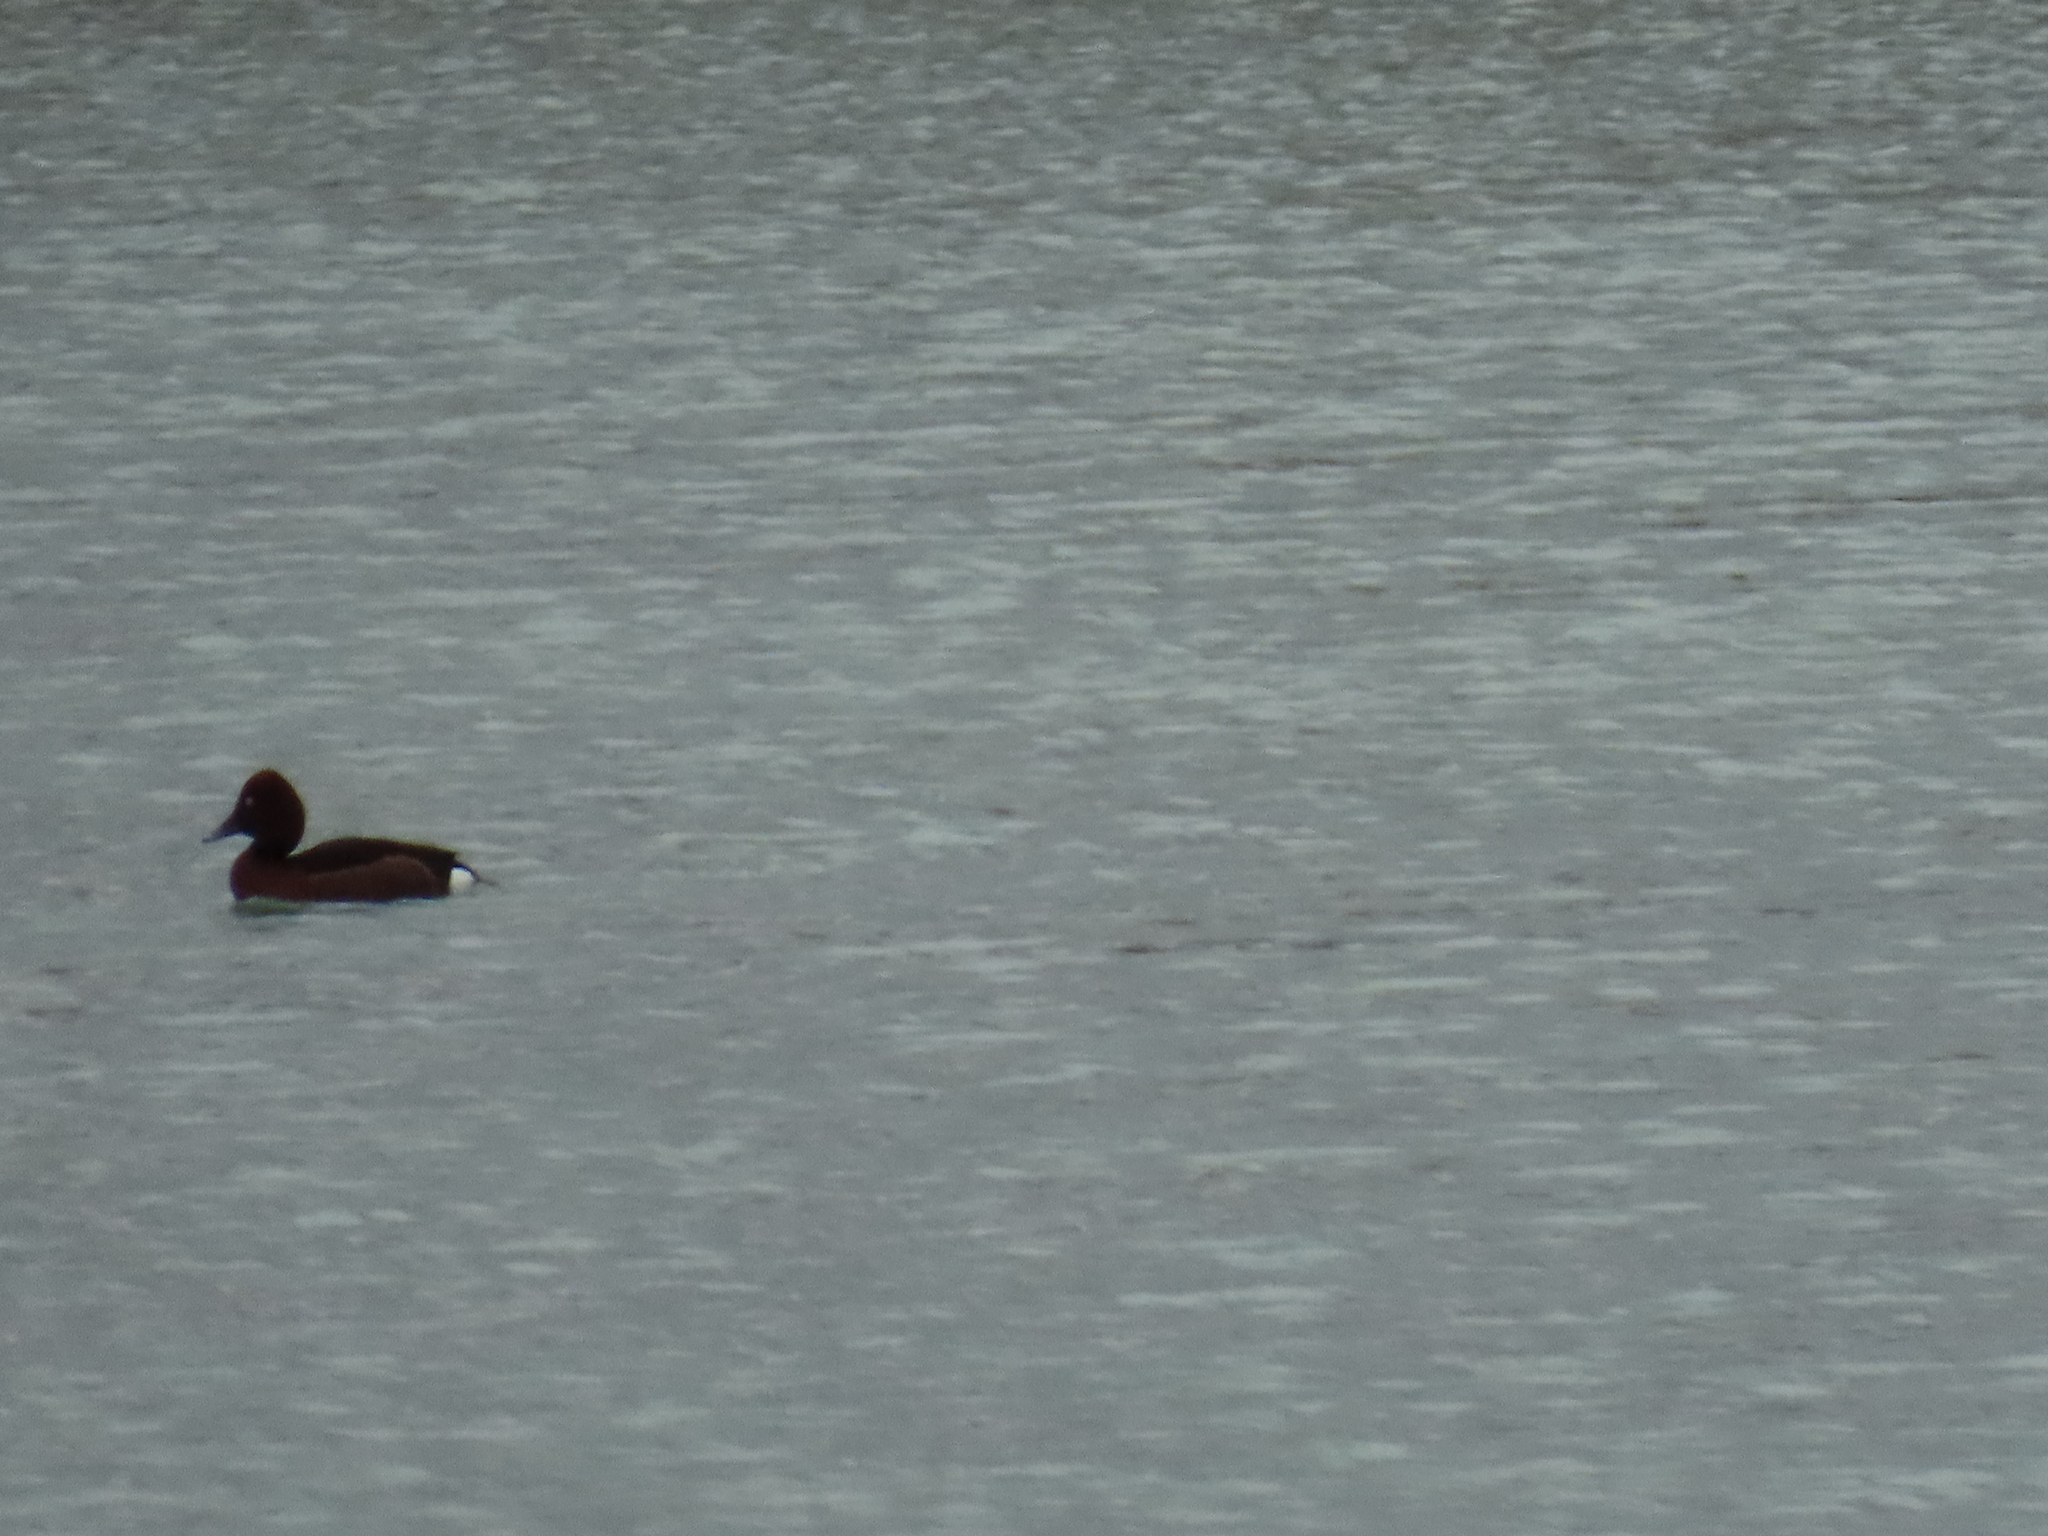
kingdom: Animalia
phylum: Chordata
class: Aves
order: Anseriformes
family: Anatidae
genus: Aythya
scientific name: Aythya nyroca
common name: Ferruginous duck
